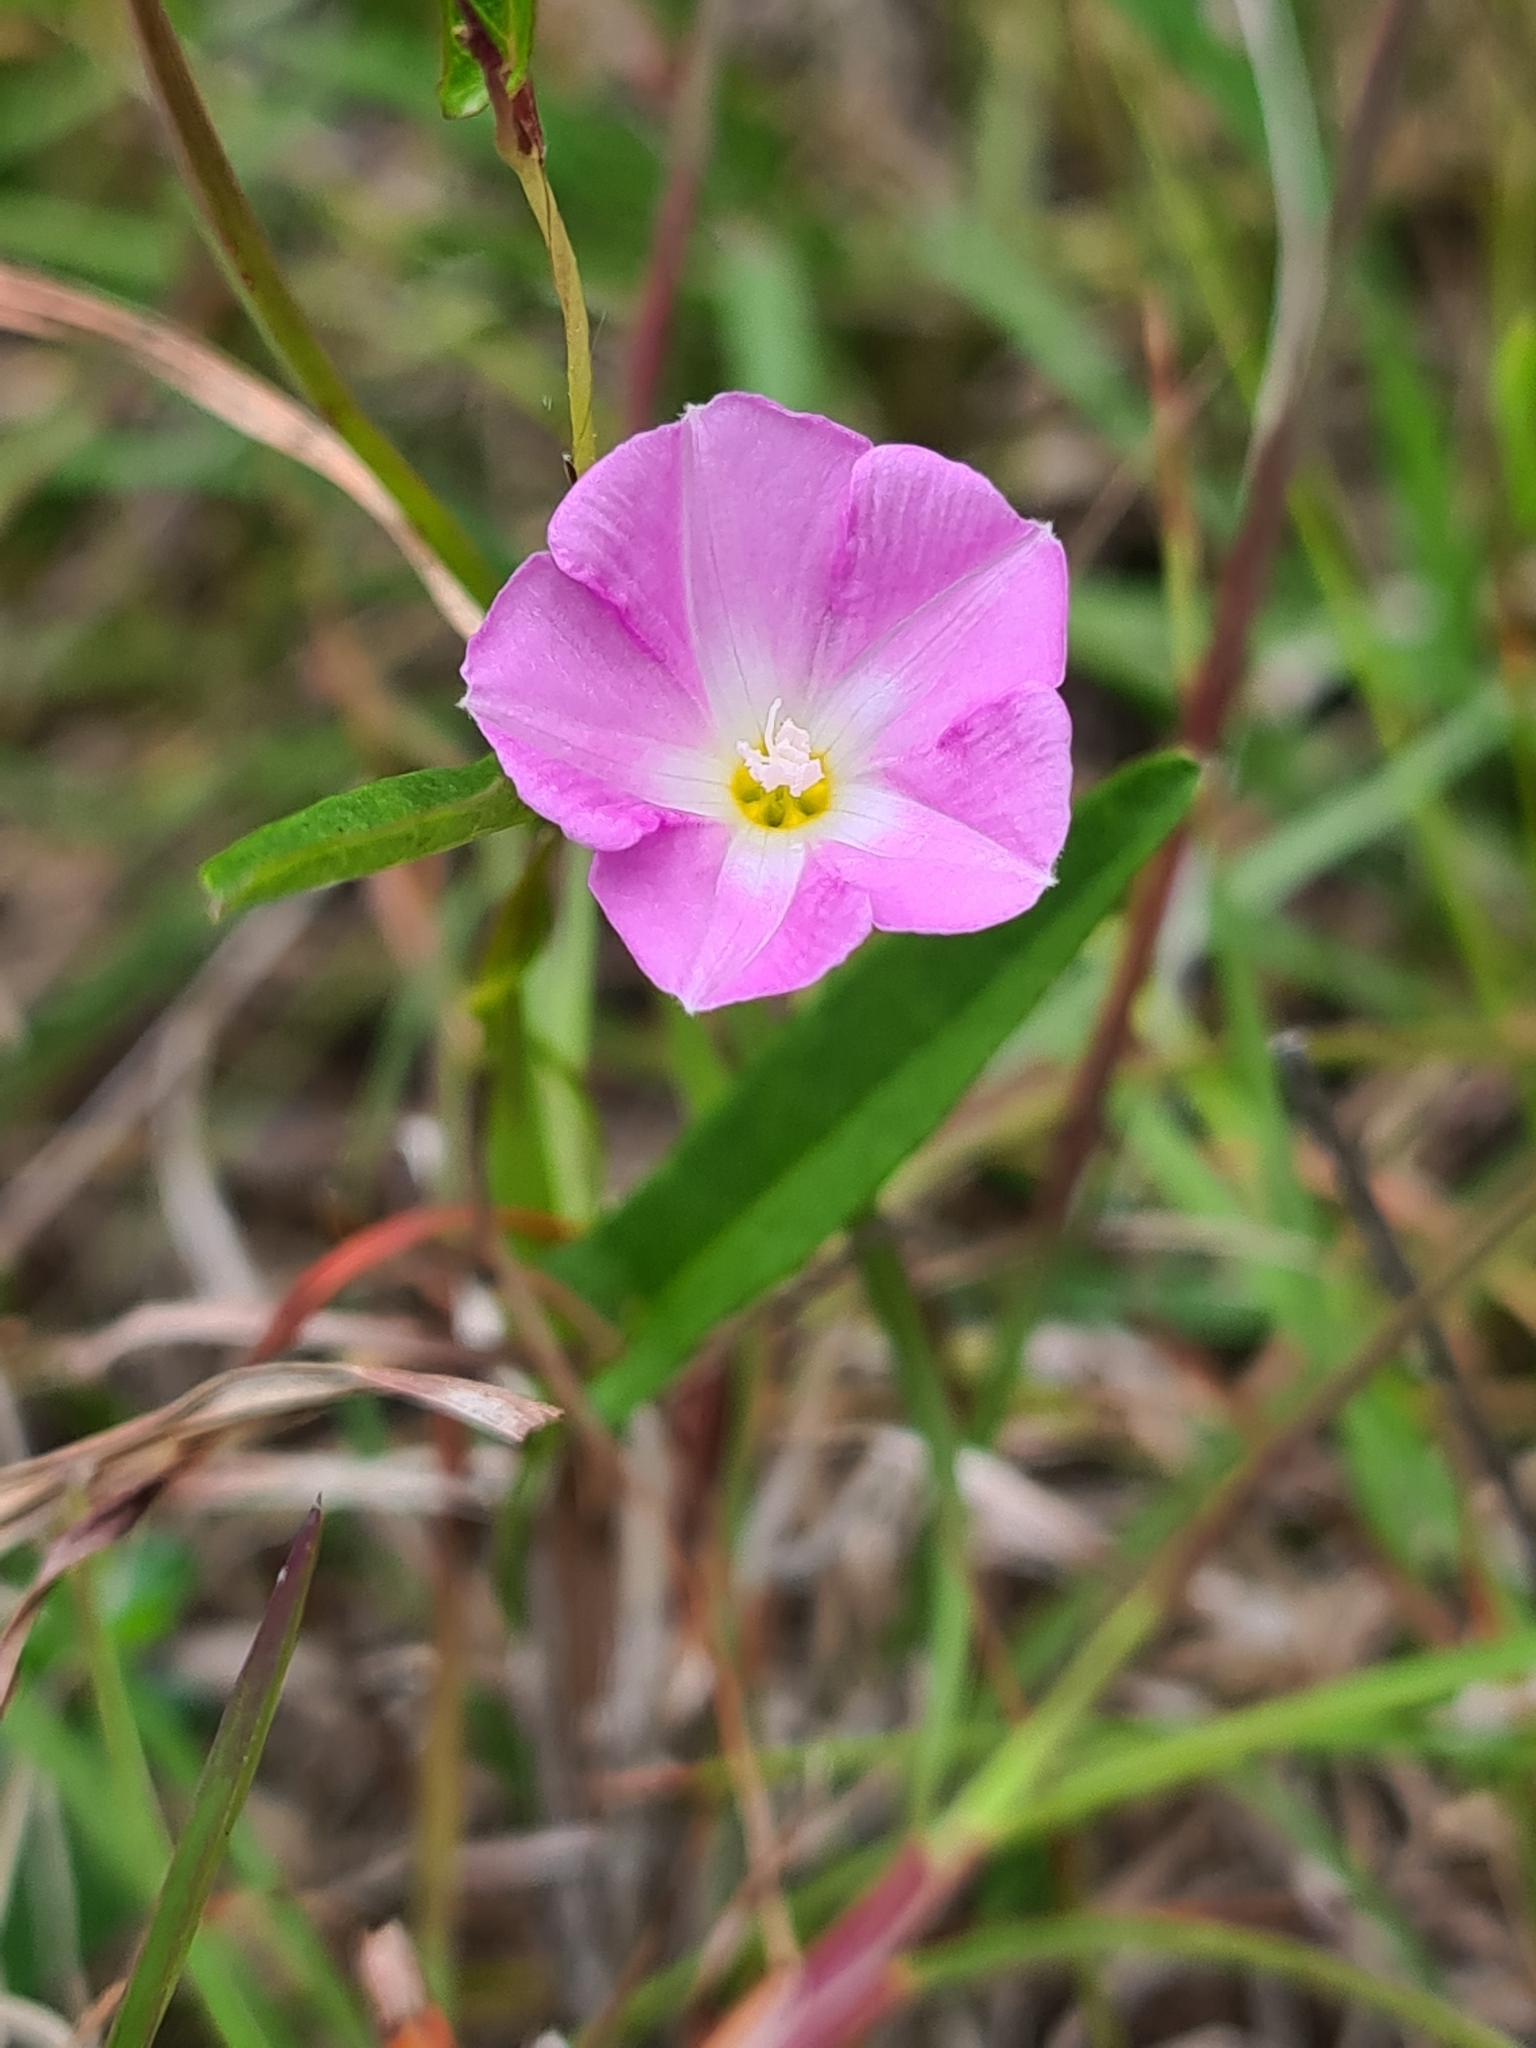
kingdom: Plantae
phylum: Tracheophyta
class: Magnoliopsida
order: Solanales
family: Convolvulaceae
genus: Polymeria
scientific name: Polymeria calycina
